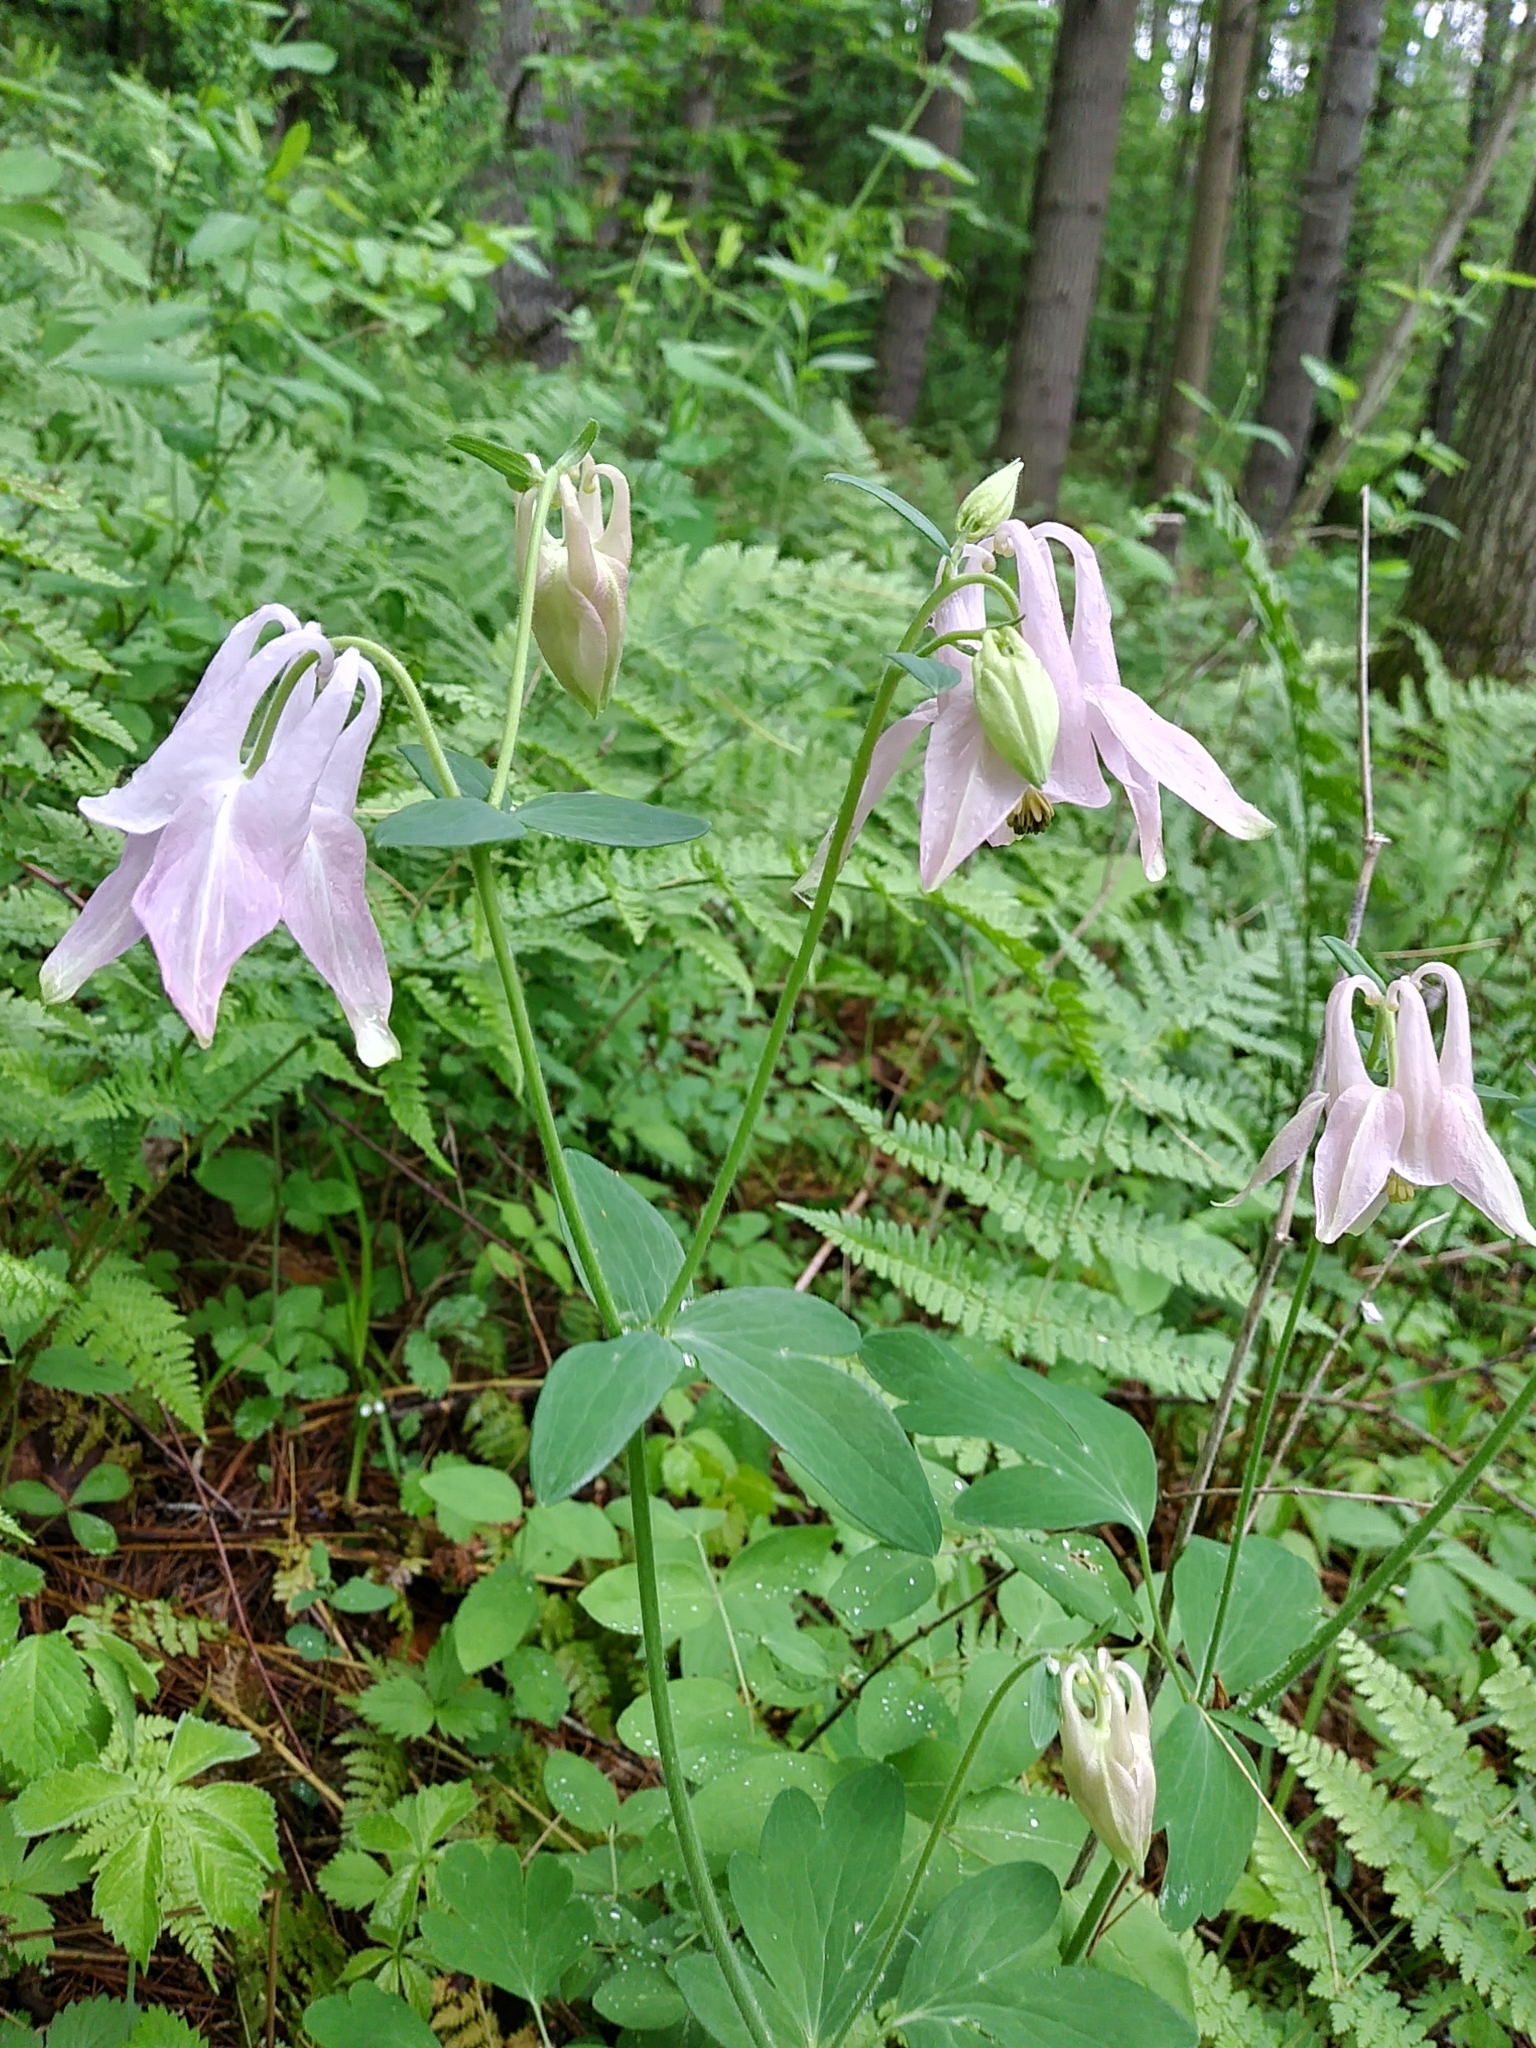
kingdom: Plantae
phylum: Tracheophyta
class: Magnoliopsida
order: Ranunculales
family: Ranunculaceae
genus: Aquilegia
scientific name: Aquilegia vulgaris
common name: Columbine
